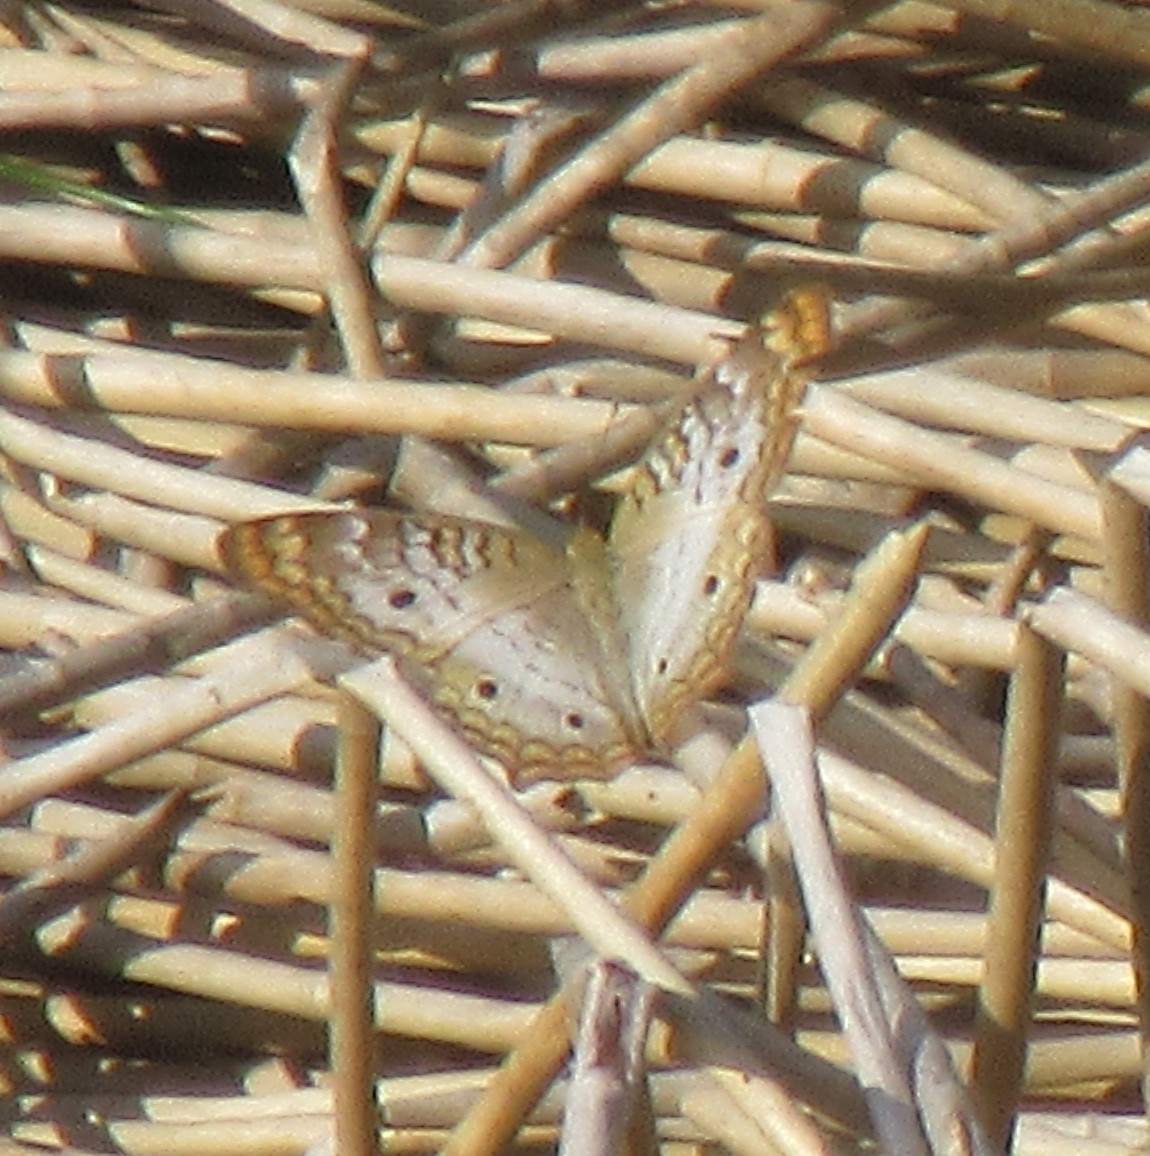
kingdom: Animalia
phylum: Arthropoda
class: Insecta
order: Lepidoptera
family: Nymphalidae
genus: Anartia
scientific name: Anartia jatrophae
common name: White peacock
